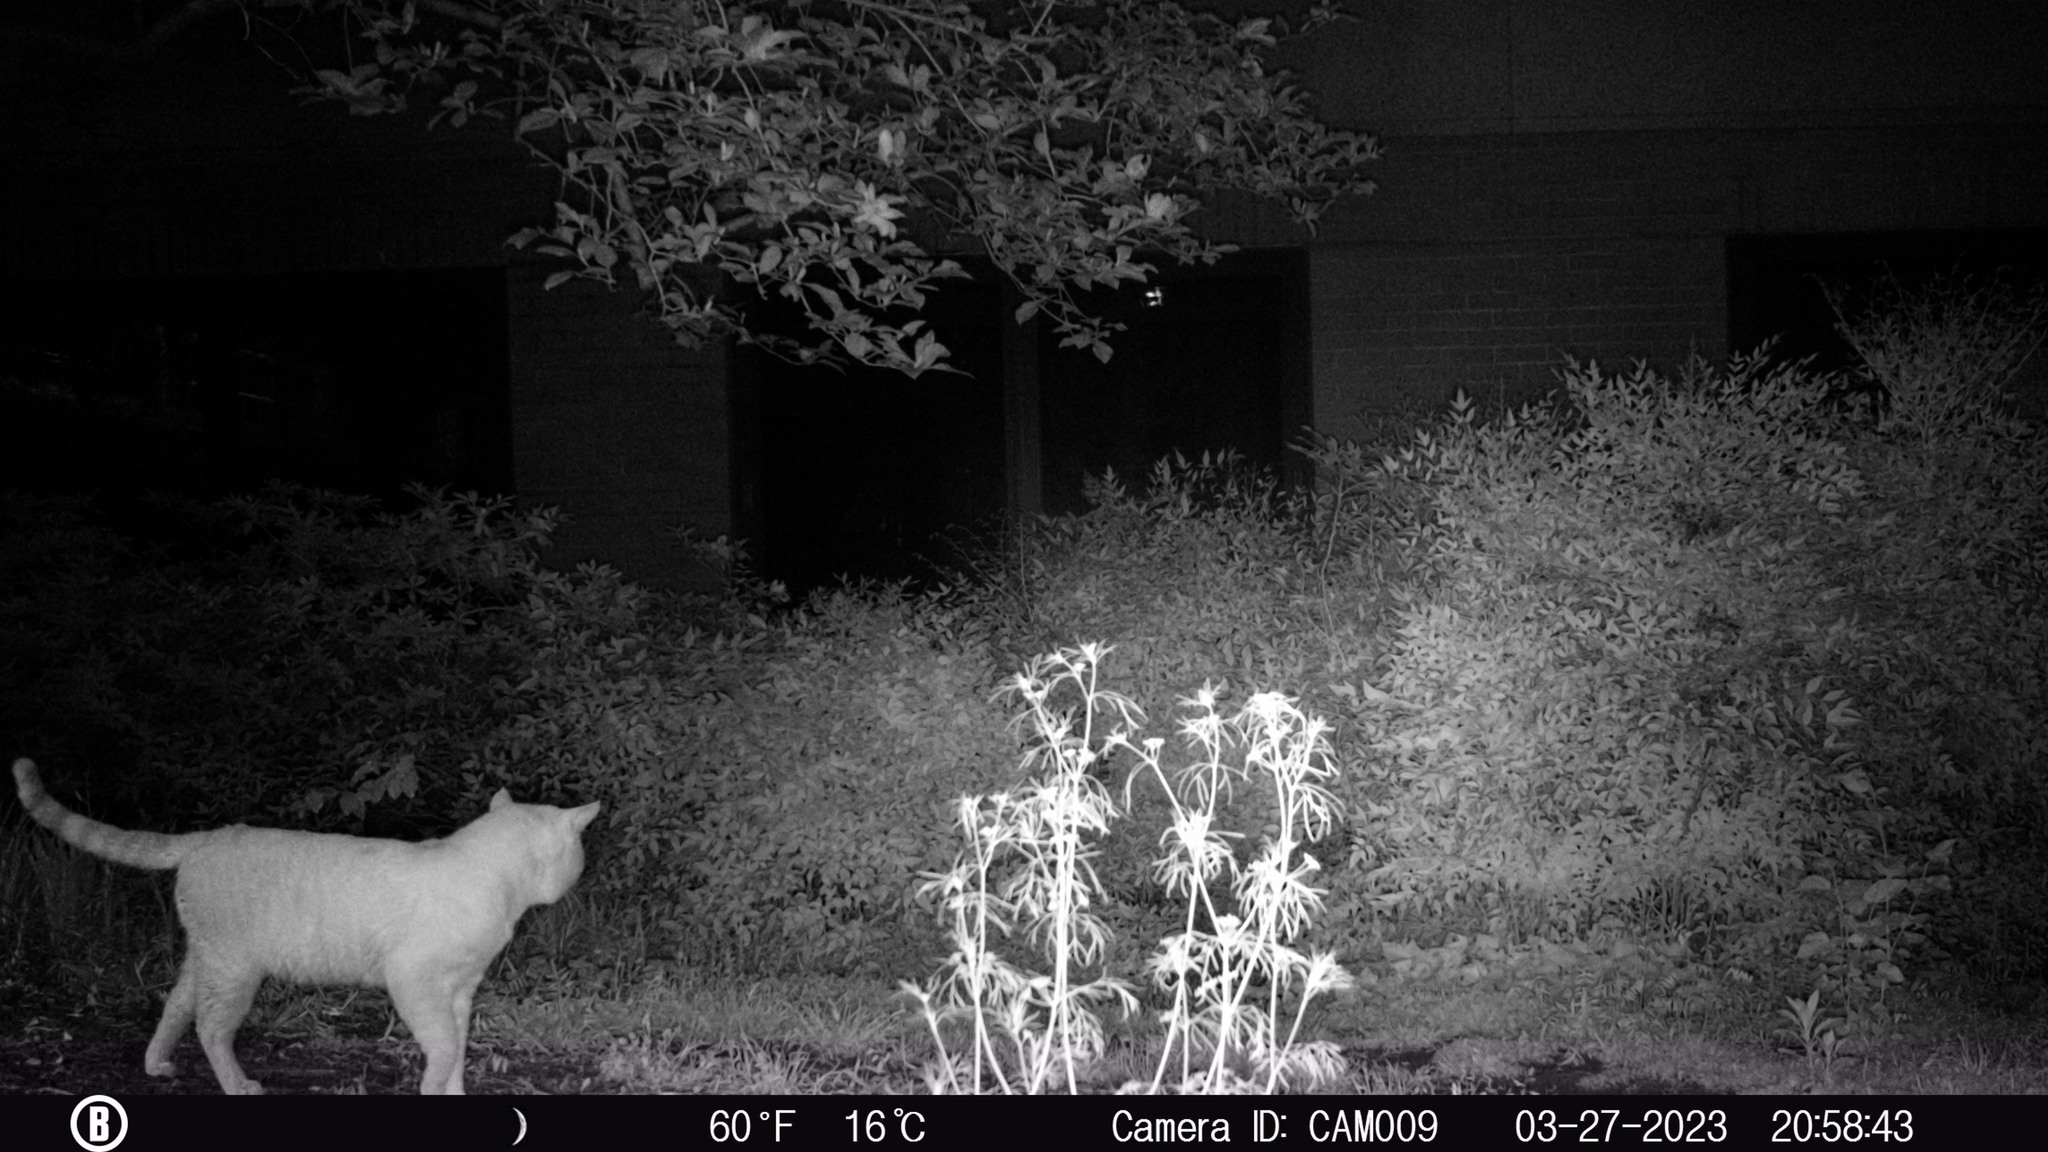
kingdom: Animalia
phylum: Chordata
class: Mammalia
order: Carnivora
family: Felidae
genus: Felis
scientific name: Felis catus
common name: Domestic cat
